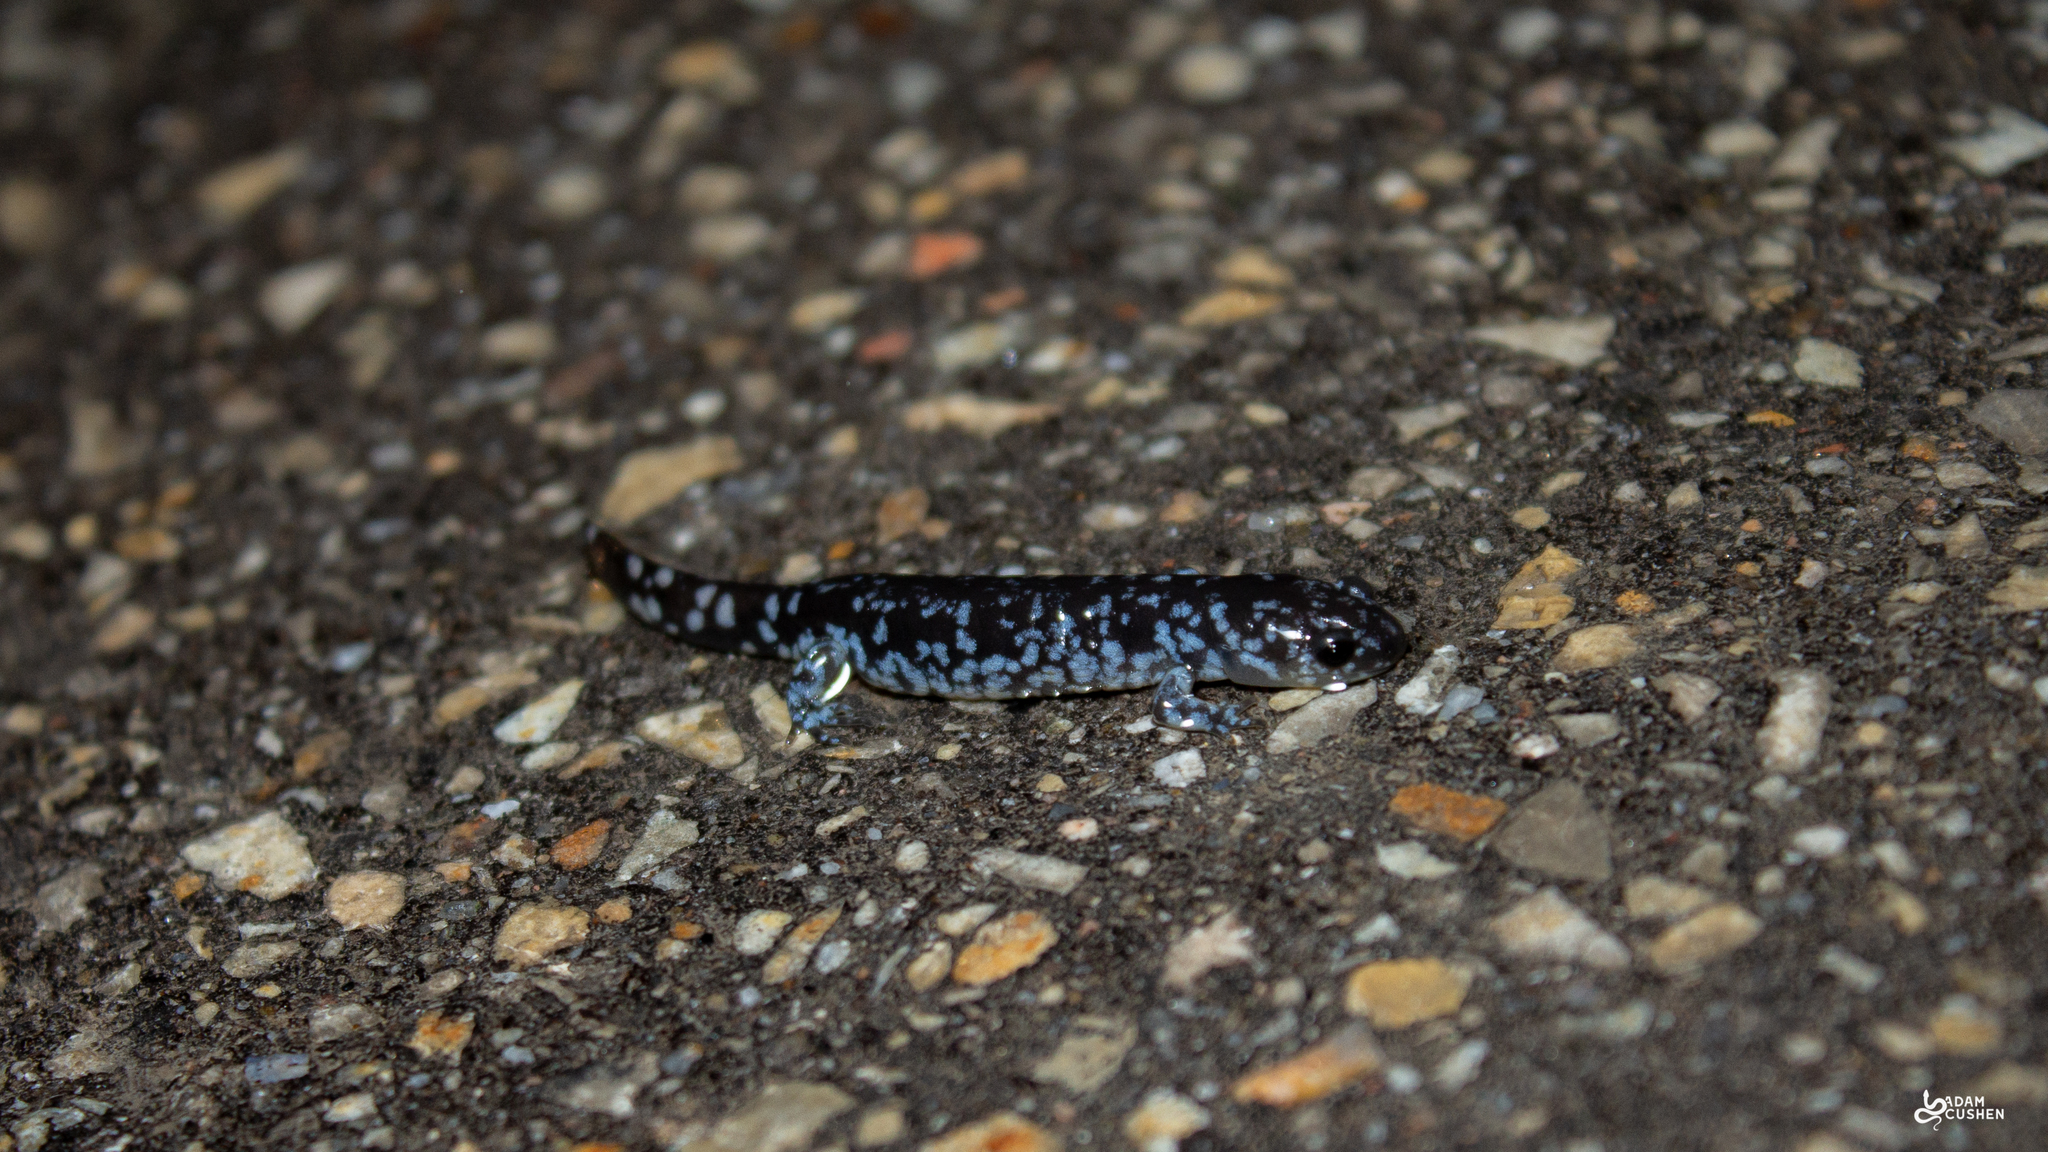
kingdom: Animalia
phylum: Chordata
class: Amphibia
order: Caudata
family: Ambystomatidae
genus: Ambystoma
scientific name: Ambystoma laterale
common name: Blue-spotted salamander
